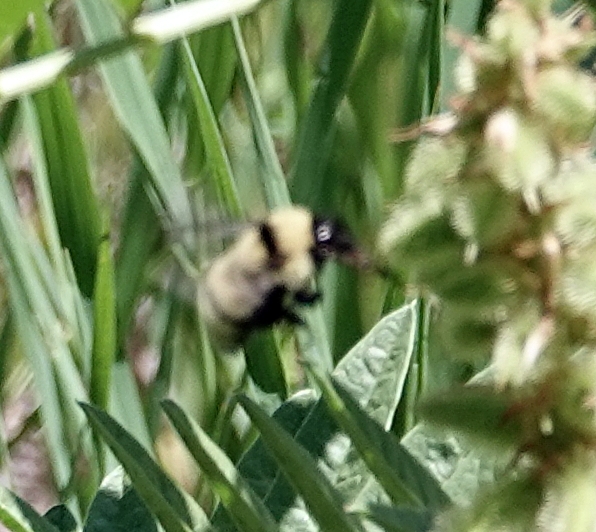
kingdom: Animalia
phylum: Arthropoda
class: Insecta
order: Hymenoptera
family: Apidae
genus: Bombus
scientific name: Bombus fervidus
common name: Yellow bumble bee
